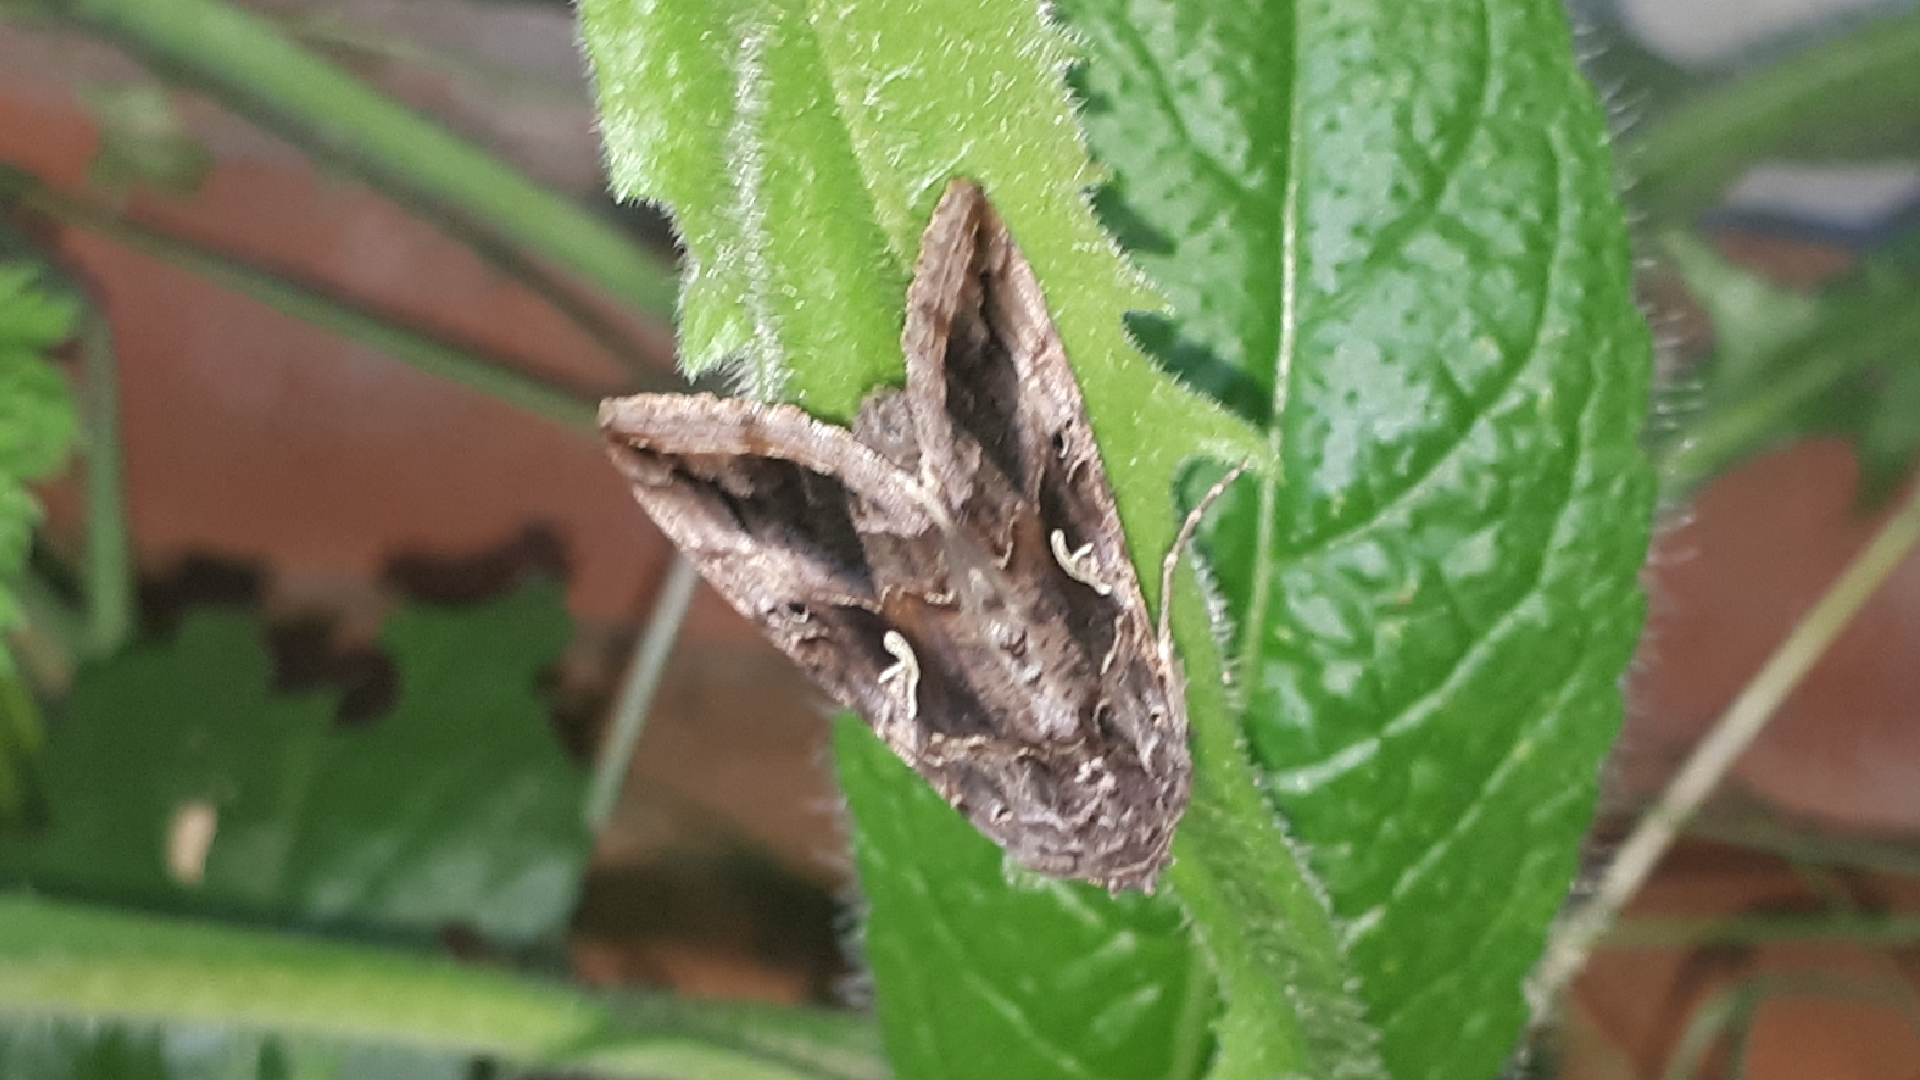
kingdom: Animalia
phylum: Arthropoda
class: Insecta
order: Lepidoptera
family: Noctuidae
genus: Autographa
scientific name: Autographa gamma
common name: Silver y
